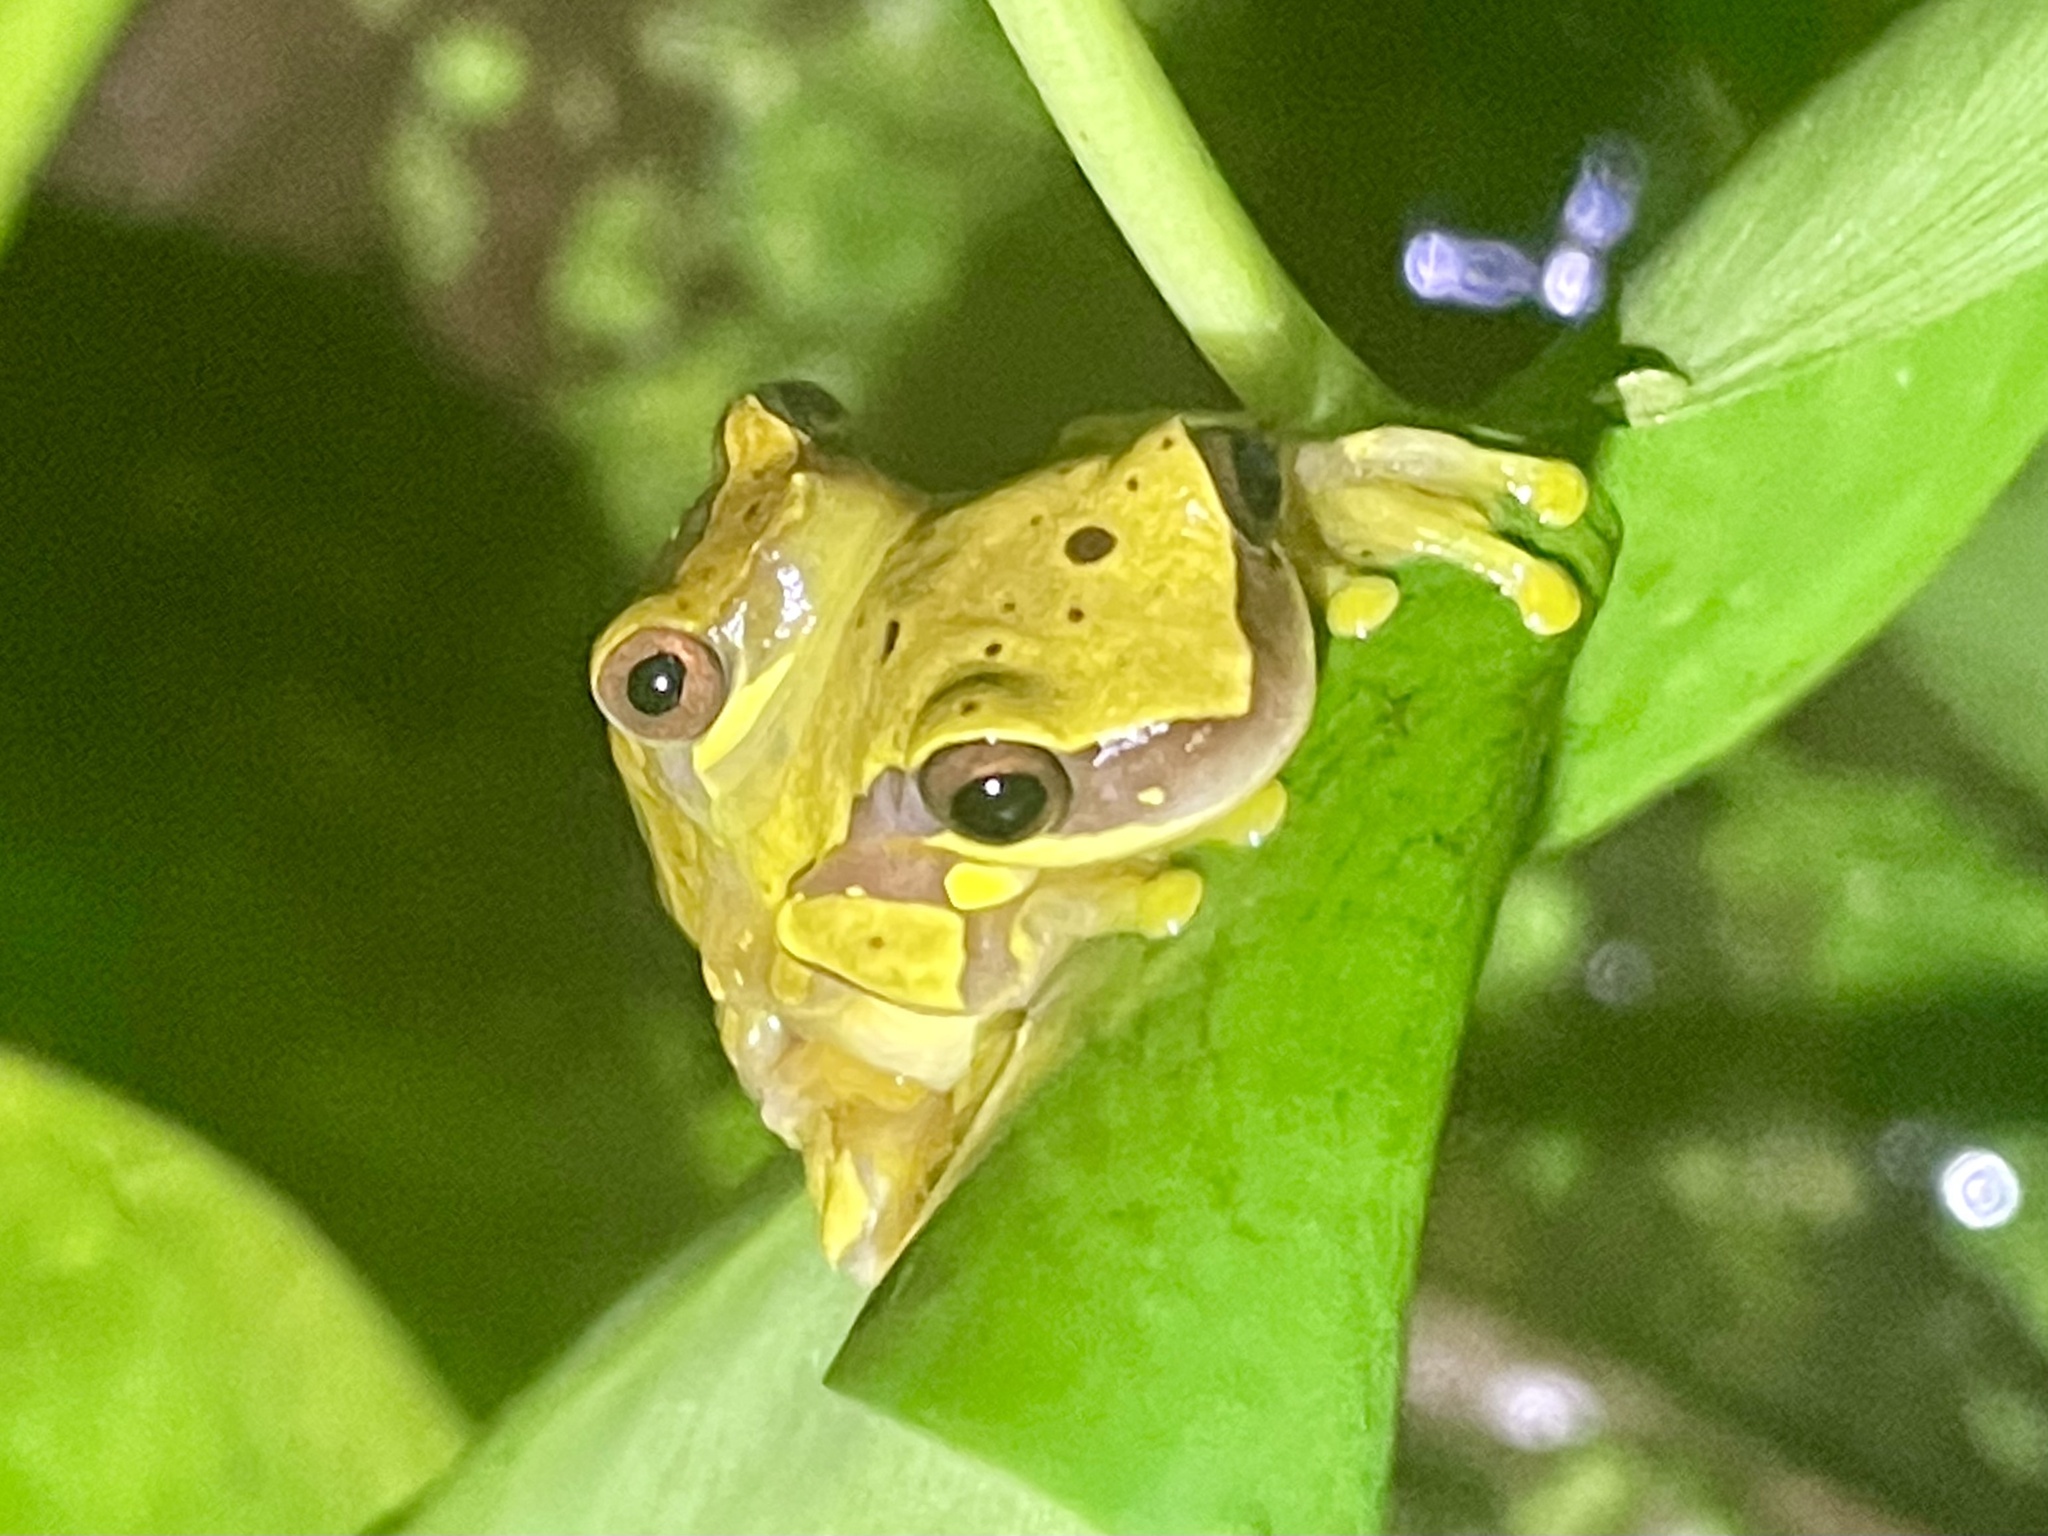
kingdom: Animalia
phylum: Chordata
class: Amphibia
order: Anura
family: Hylidae
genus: Dendropsophus
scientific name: Dendropsophus ebraccatus
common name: Hourglass treefrog
